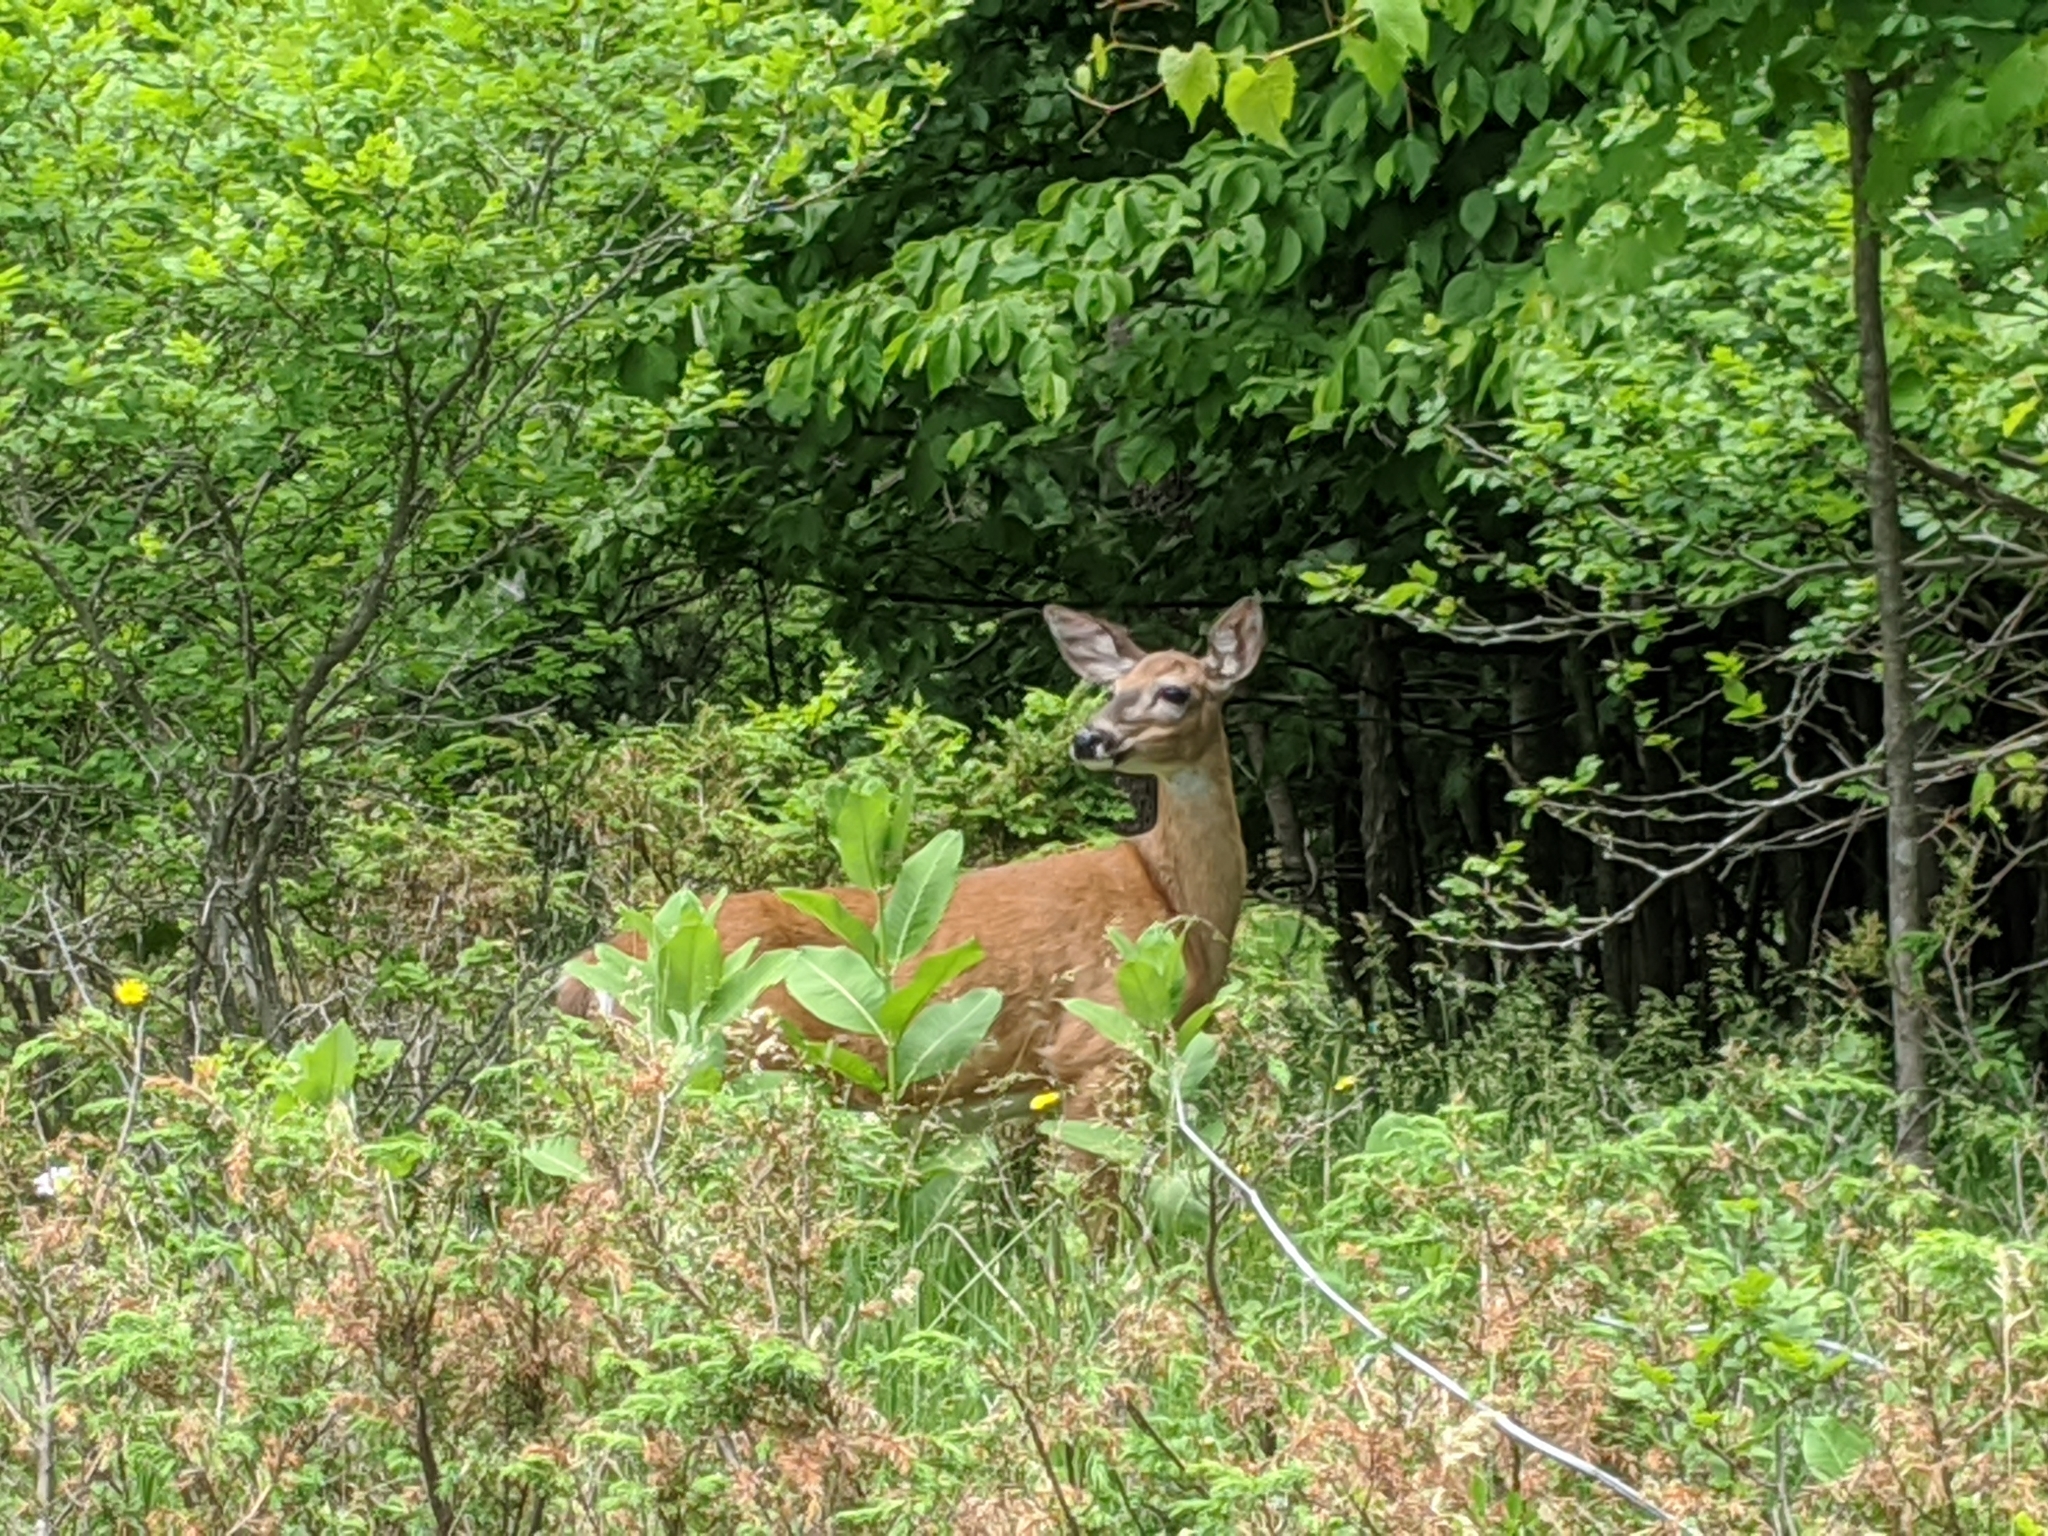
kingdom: Animalia
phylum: Chordata
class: Mammalia
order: Artiodactyla
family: Cervidae
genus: Odocoileus
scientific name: Odocoileus virginianus
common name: White-tailed deer
